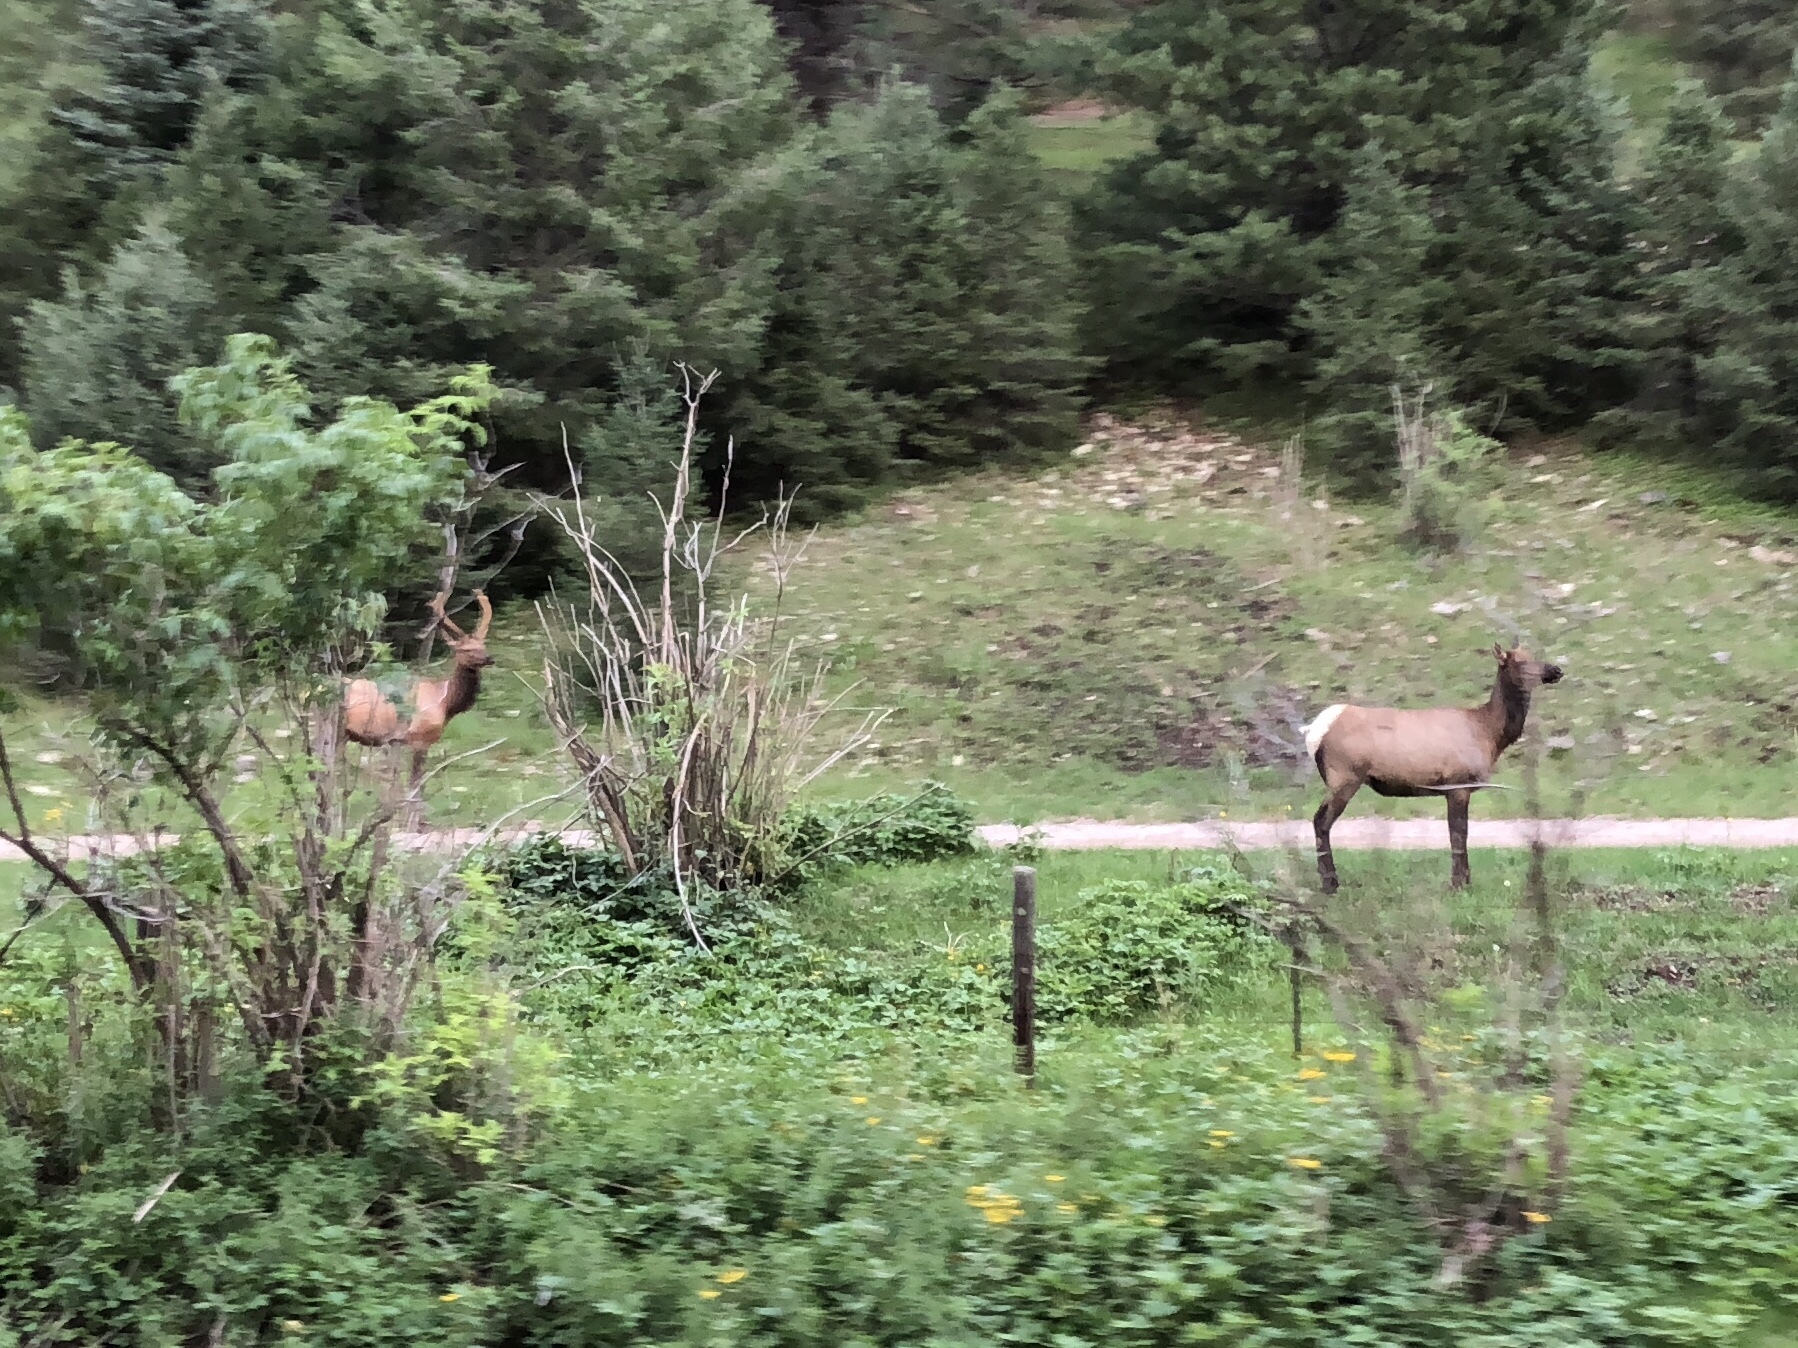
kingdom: Animalia
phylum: Chordata
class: Mammalia
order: Artiodactyla
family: Cervidae
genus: Cervus
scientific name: Cervus elaphus
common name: Red deer
